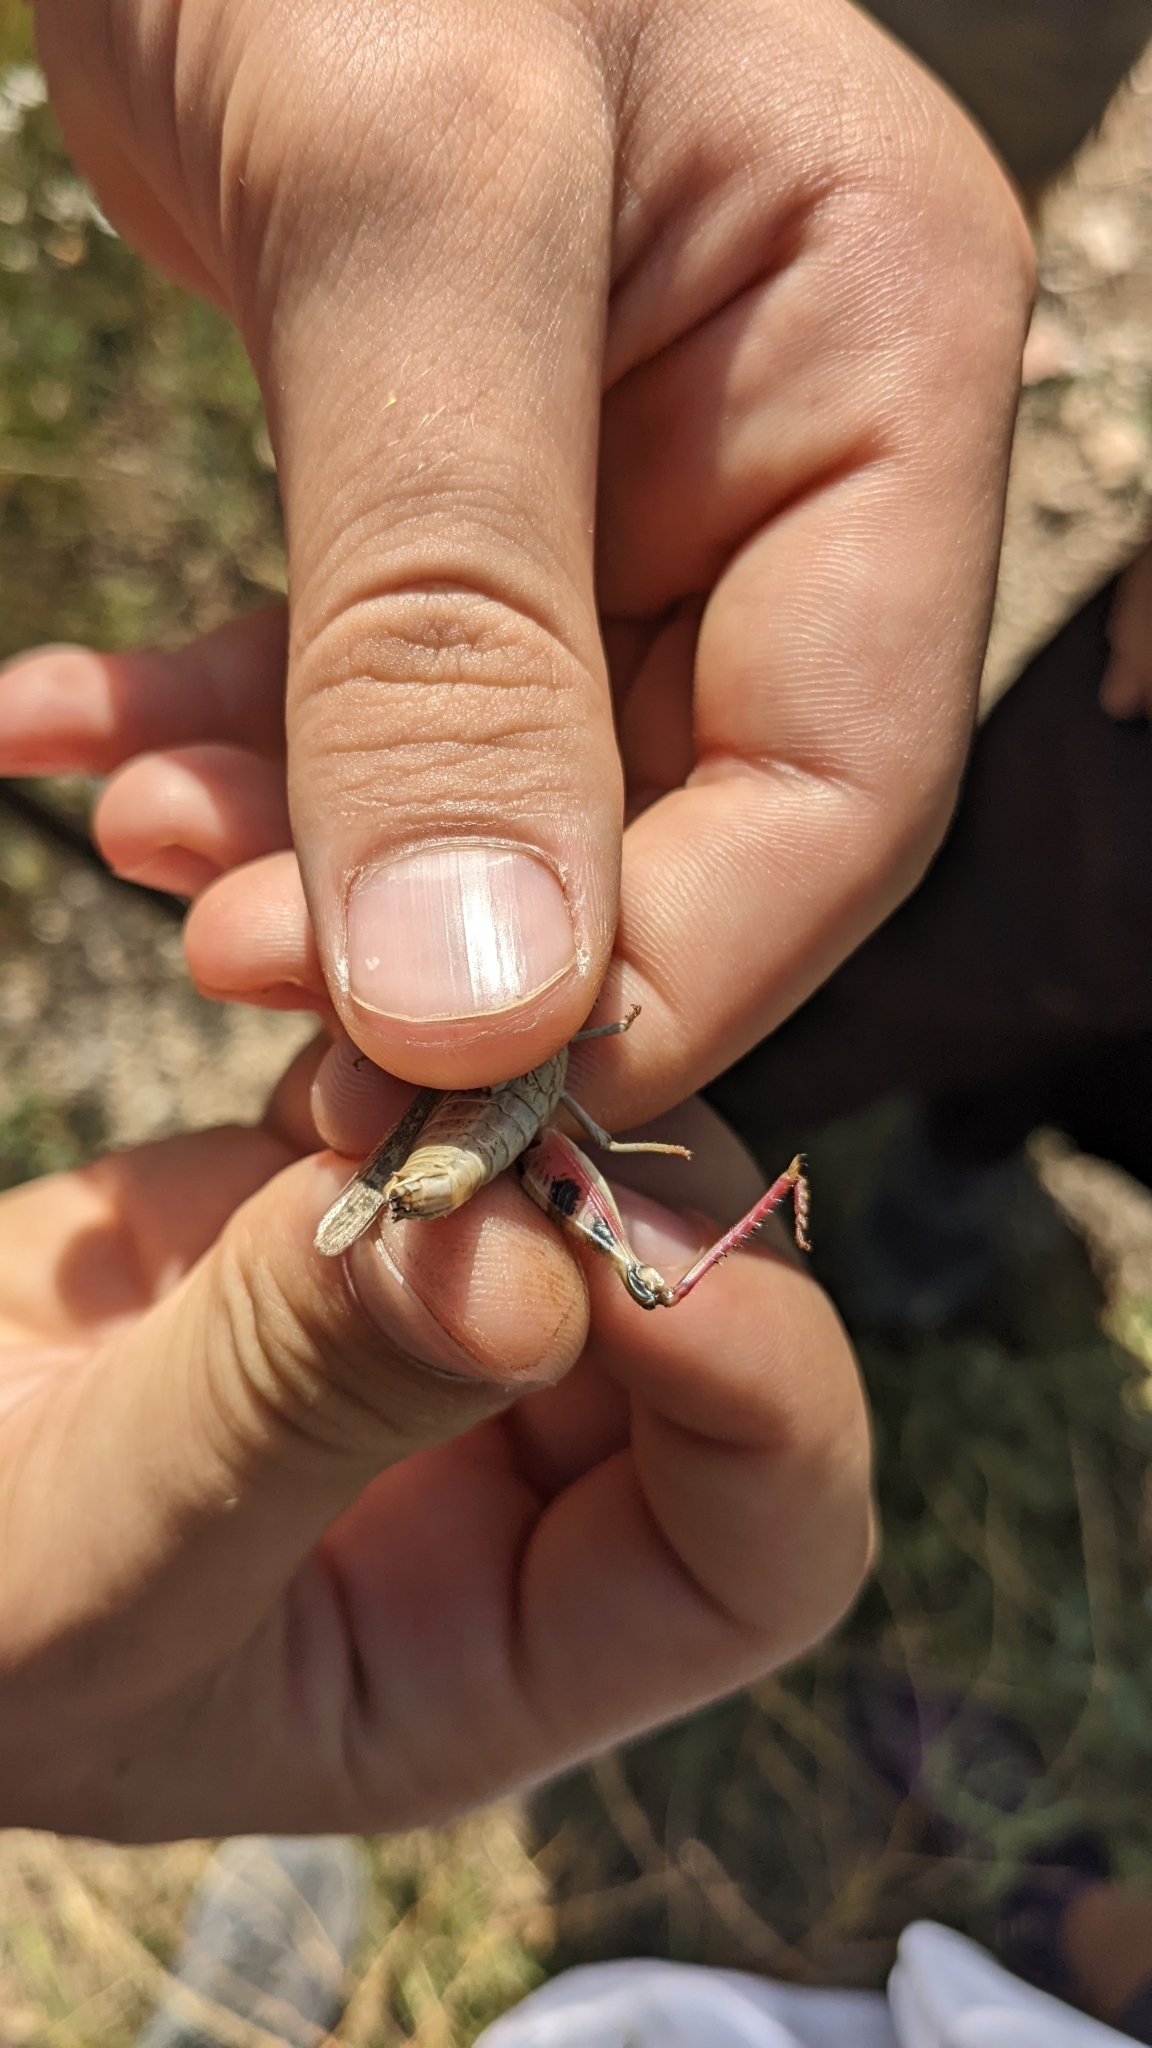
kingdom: Animalia
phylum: Arthropoda
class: Insecta
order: Orthoptera
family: Acrididae
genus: Calliptamus
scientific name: Calliptamus barbarus
